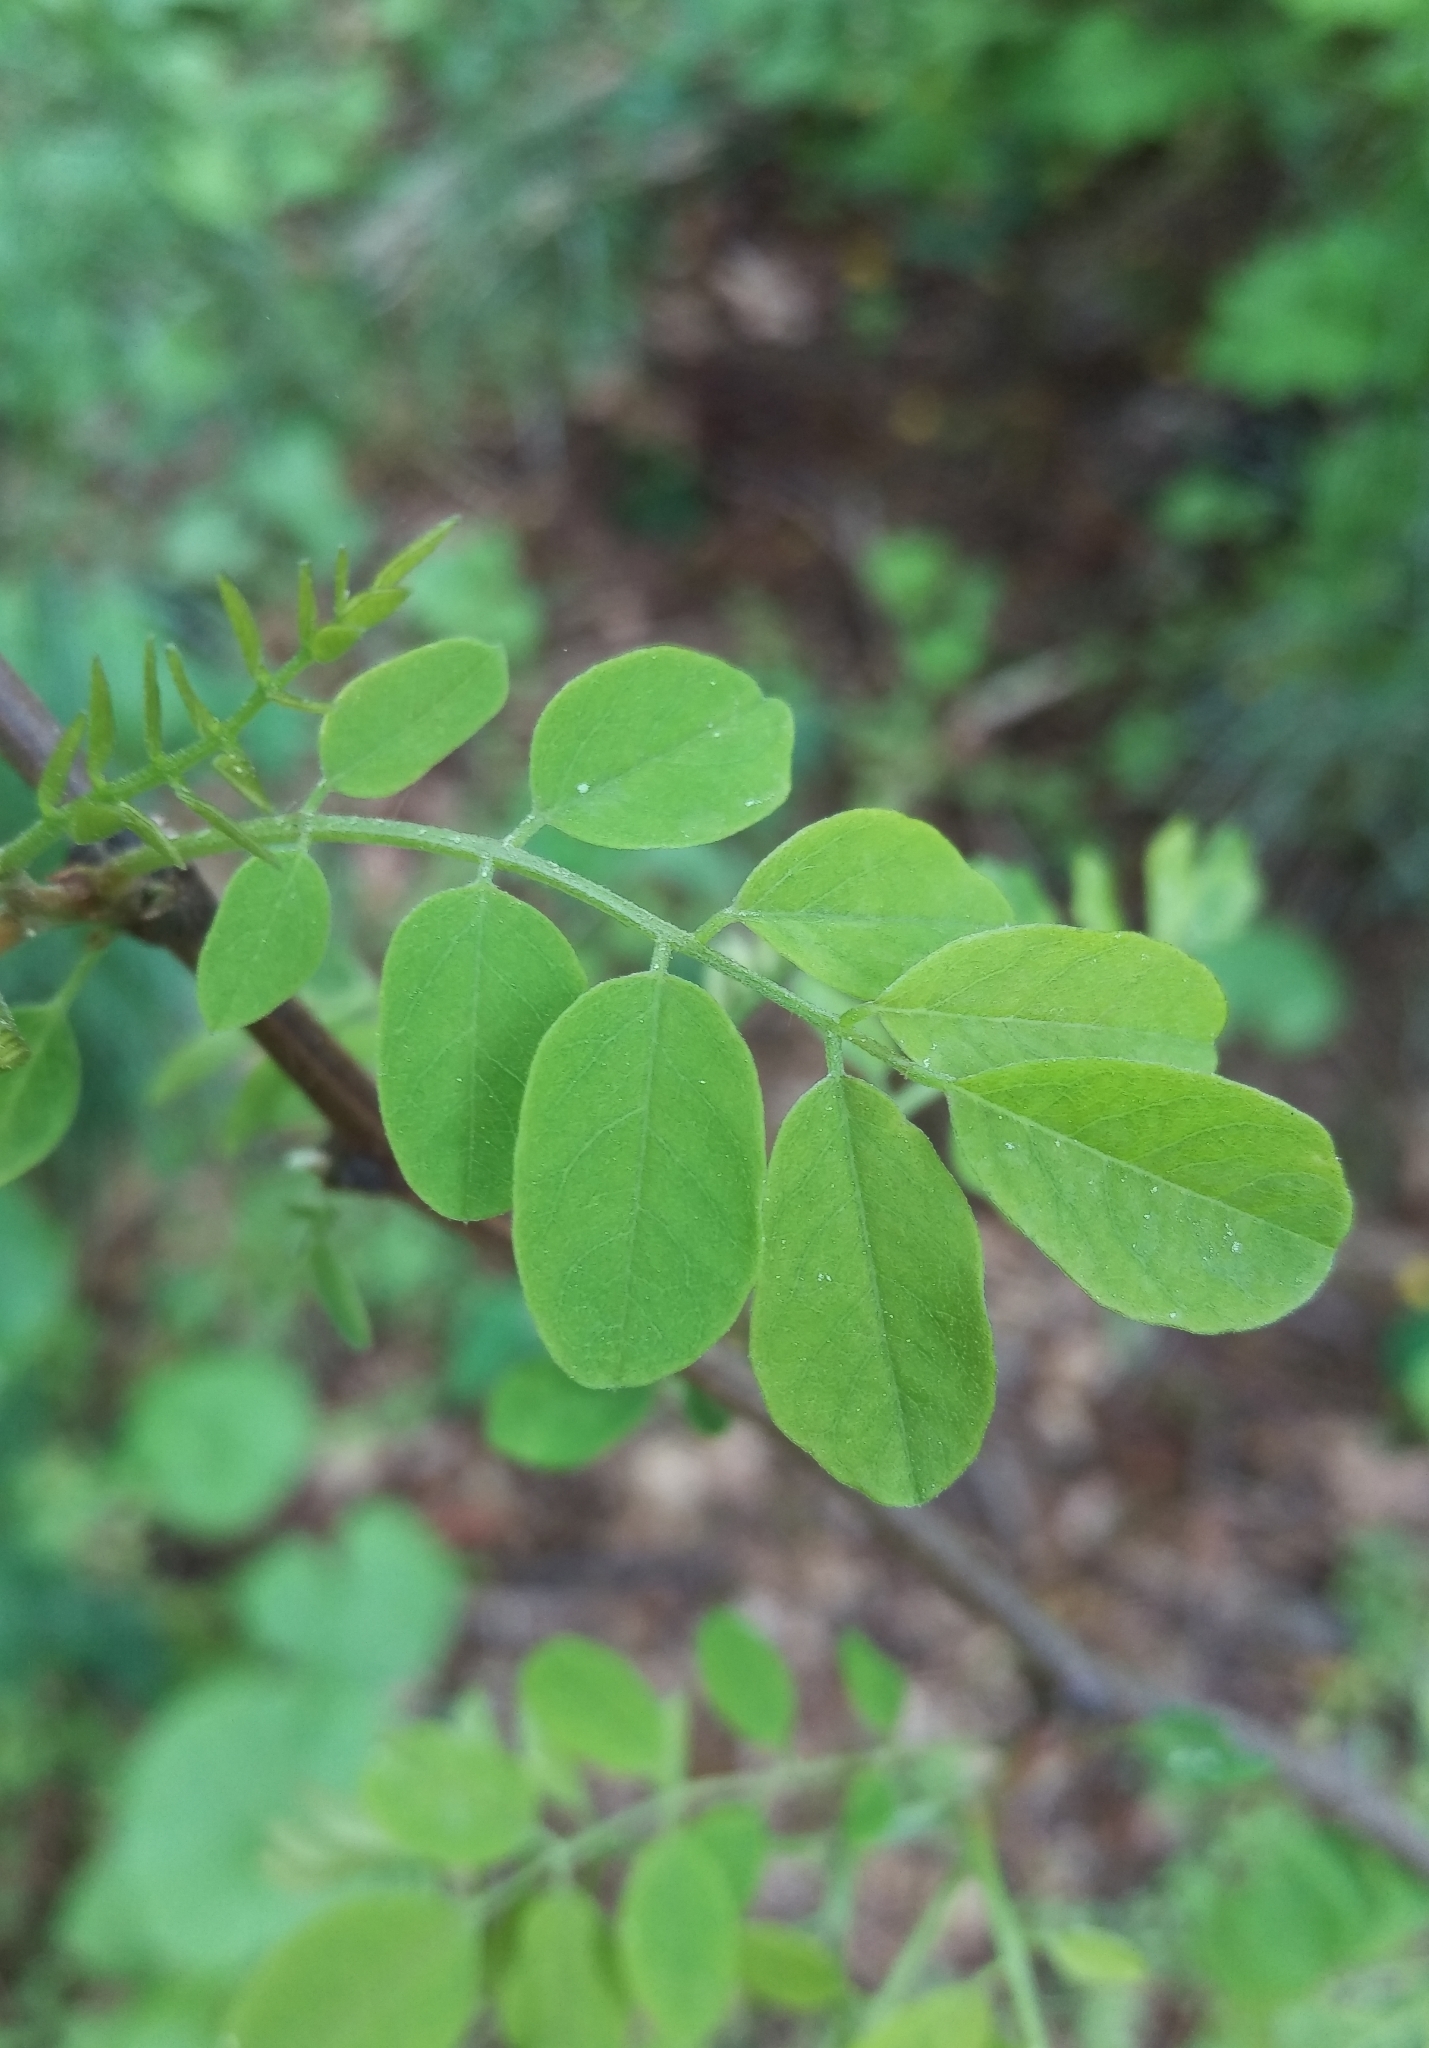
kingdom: Plantae
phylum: Tracheophyta
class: Magnoliopsida
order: Fabales
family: Fabaceae
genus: Robinia
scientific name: Robinia pseudoacacia
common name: Black locust
